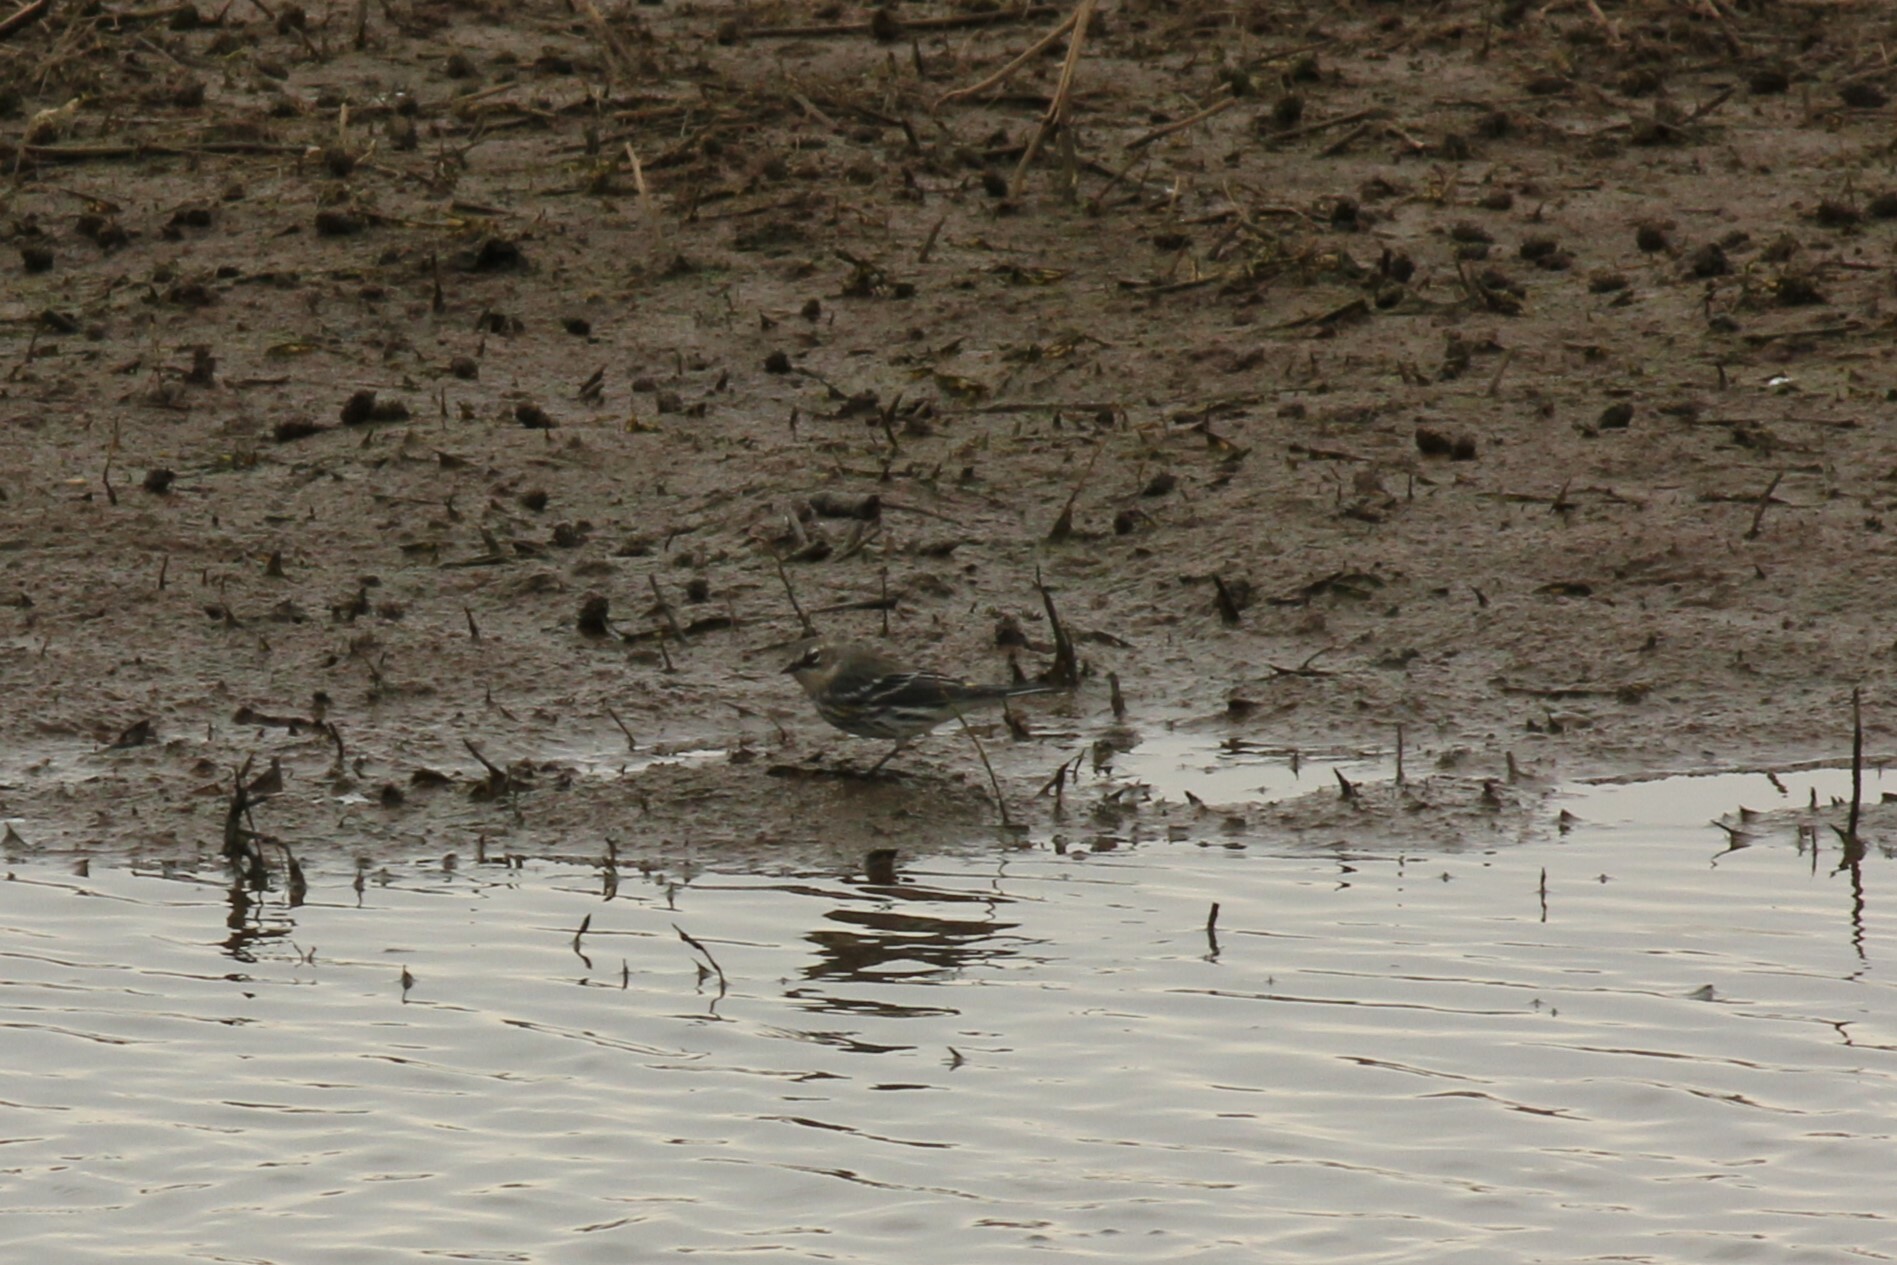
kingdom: Animalia
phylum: Chordata
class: Aves
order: Passeriformes
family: Parulidae
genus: Setophaga
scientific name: Setophaga coronata
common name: Myrtle warbler
